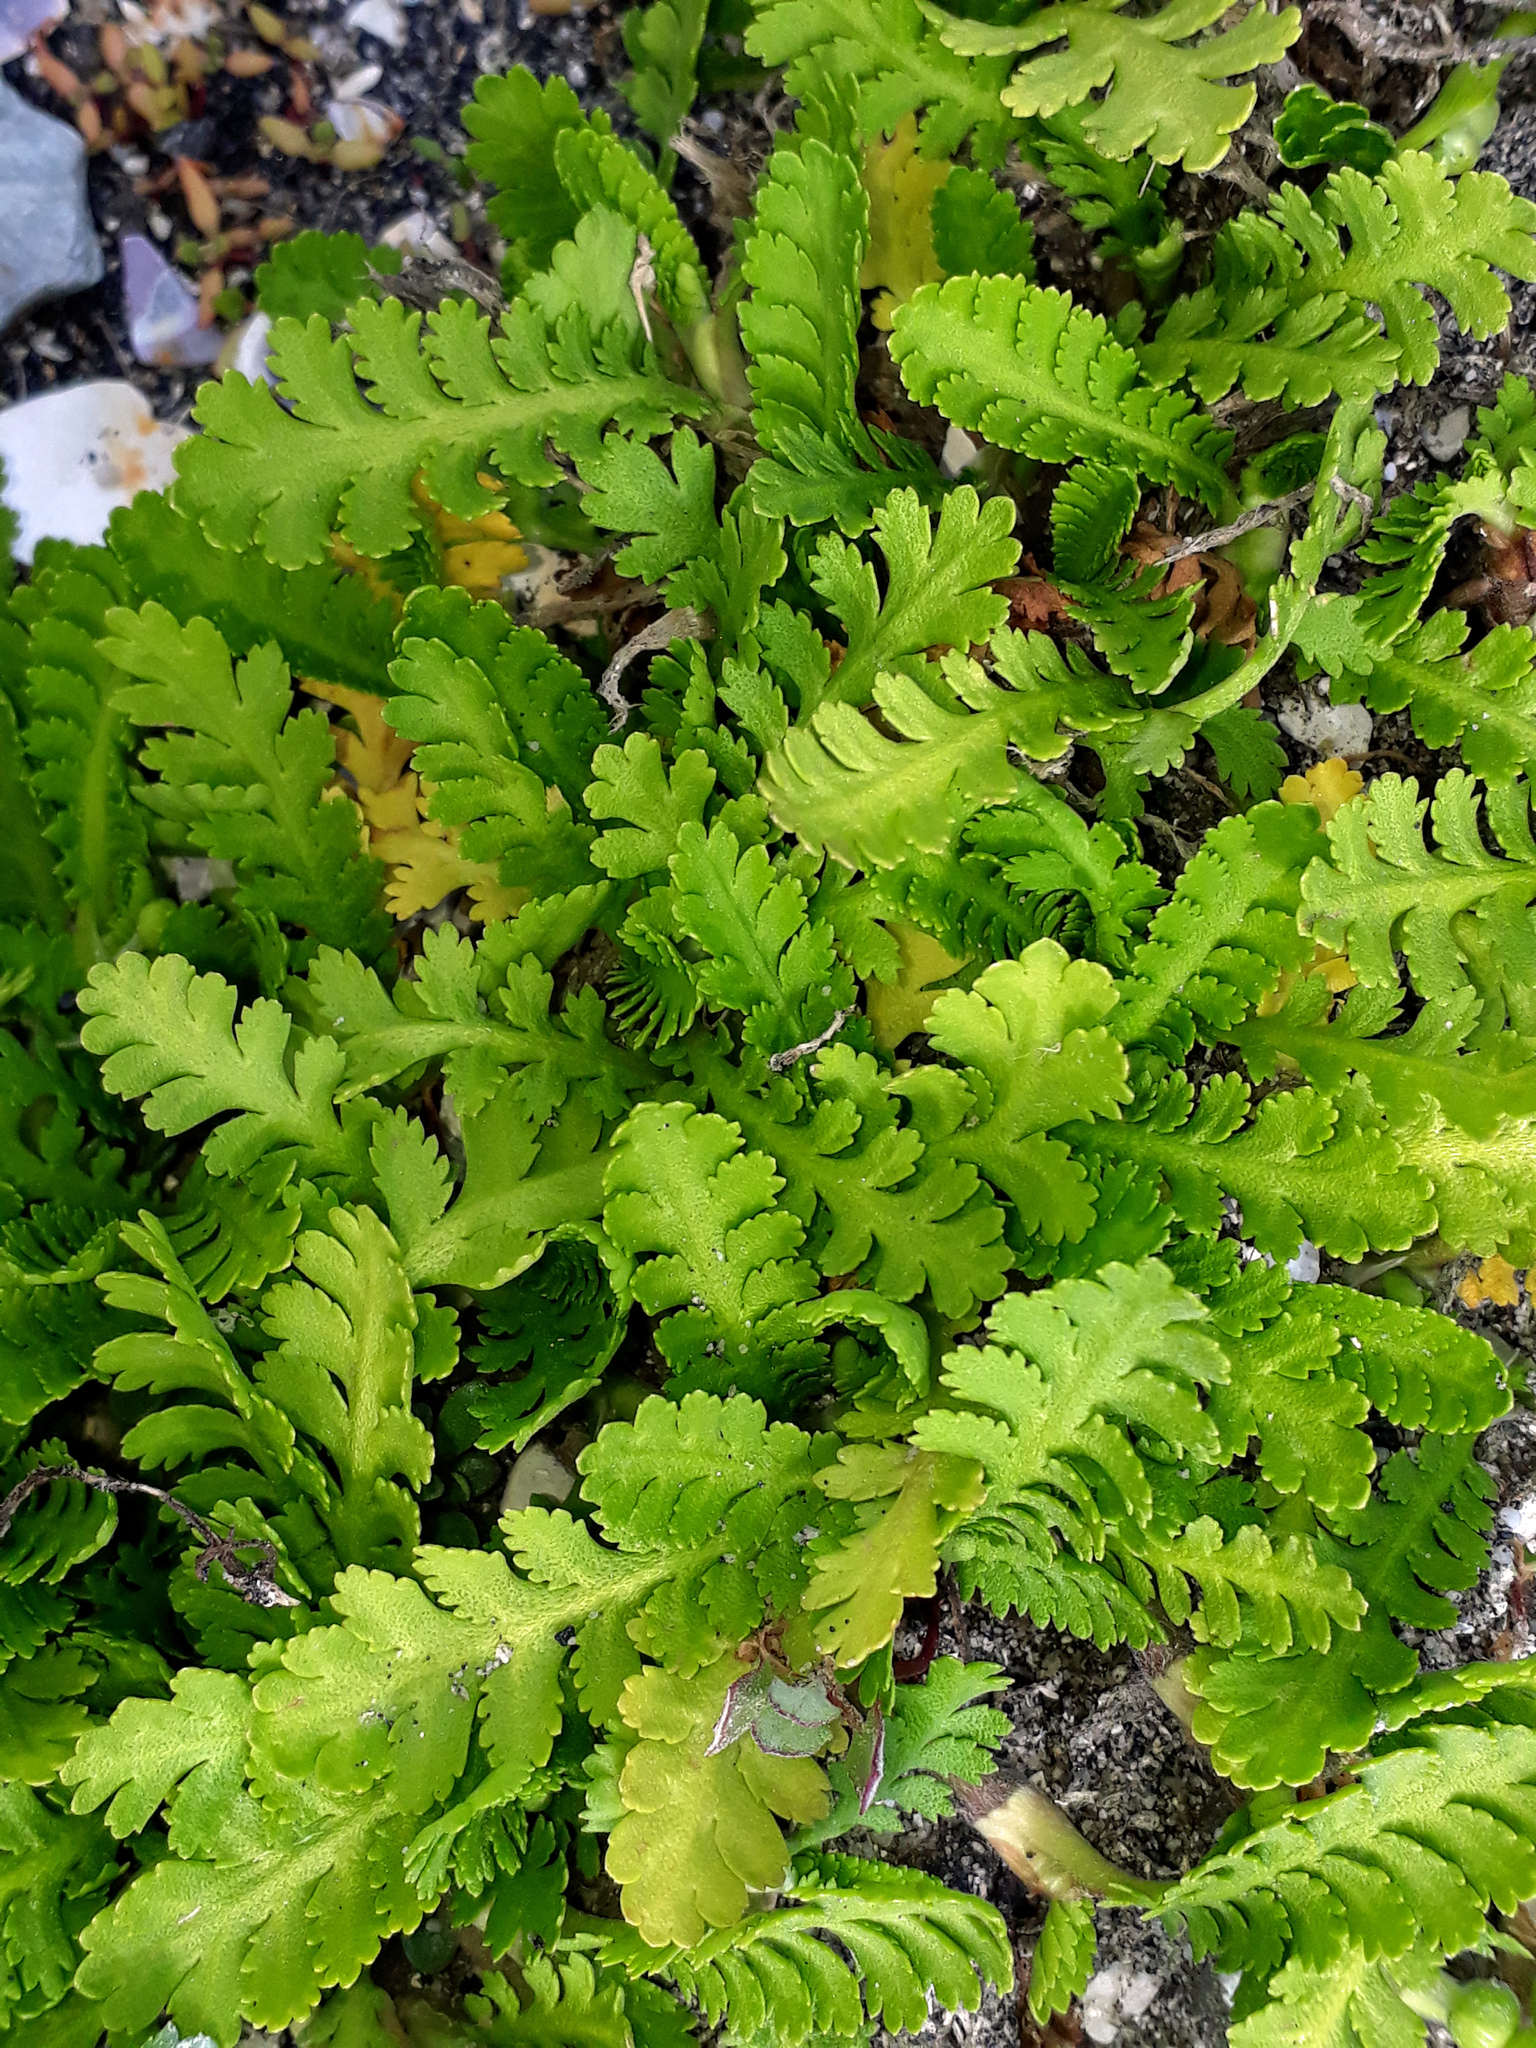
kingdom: Plantae
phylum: Tracheophyta
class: Magnoliopsida
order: Asterales
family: Asteraceae
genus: Leptinella
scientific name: Leptinella potentillina
